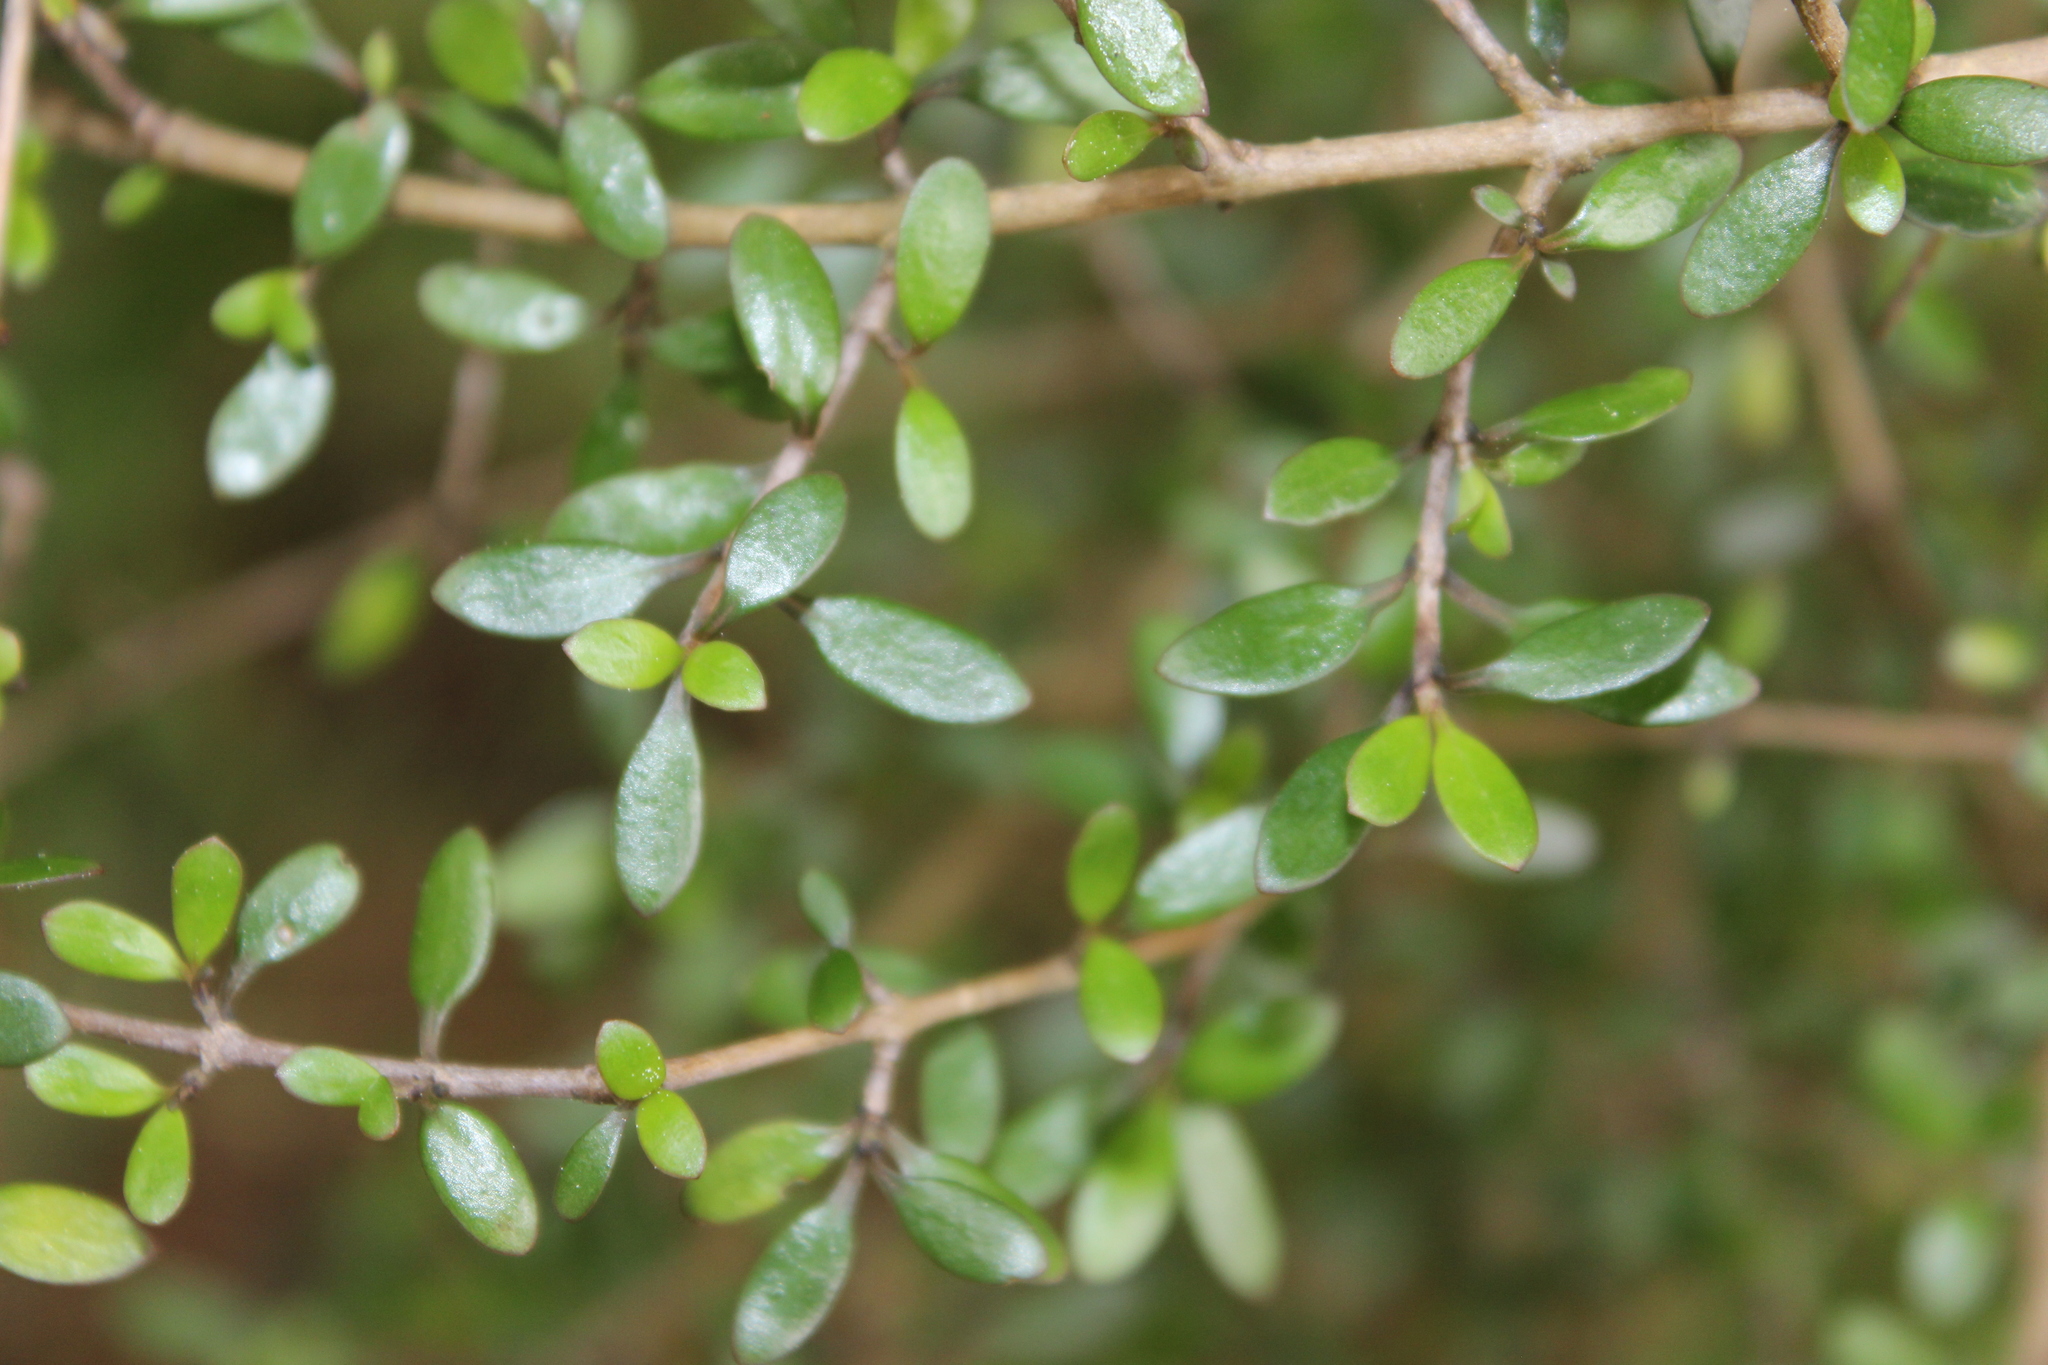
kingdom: Plantae
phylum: Tracheophyta
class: Magnoliopsida
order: Gentianales
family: Rubiaceae
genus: Coprosma
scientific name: Coprosma propinqua
